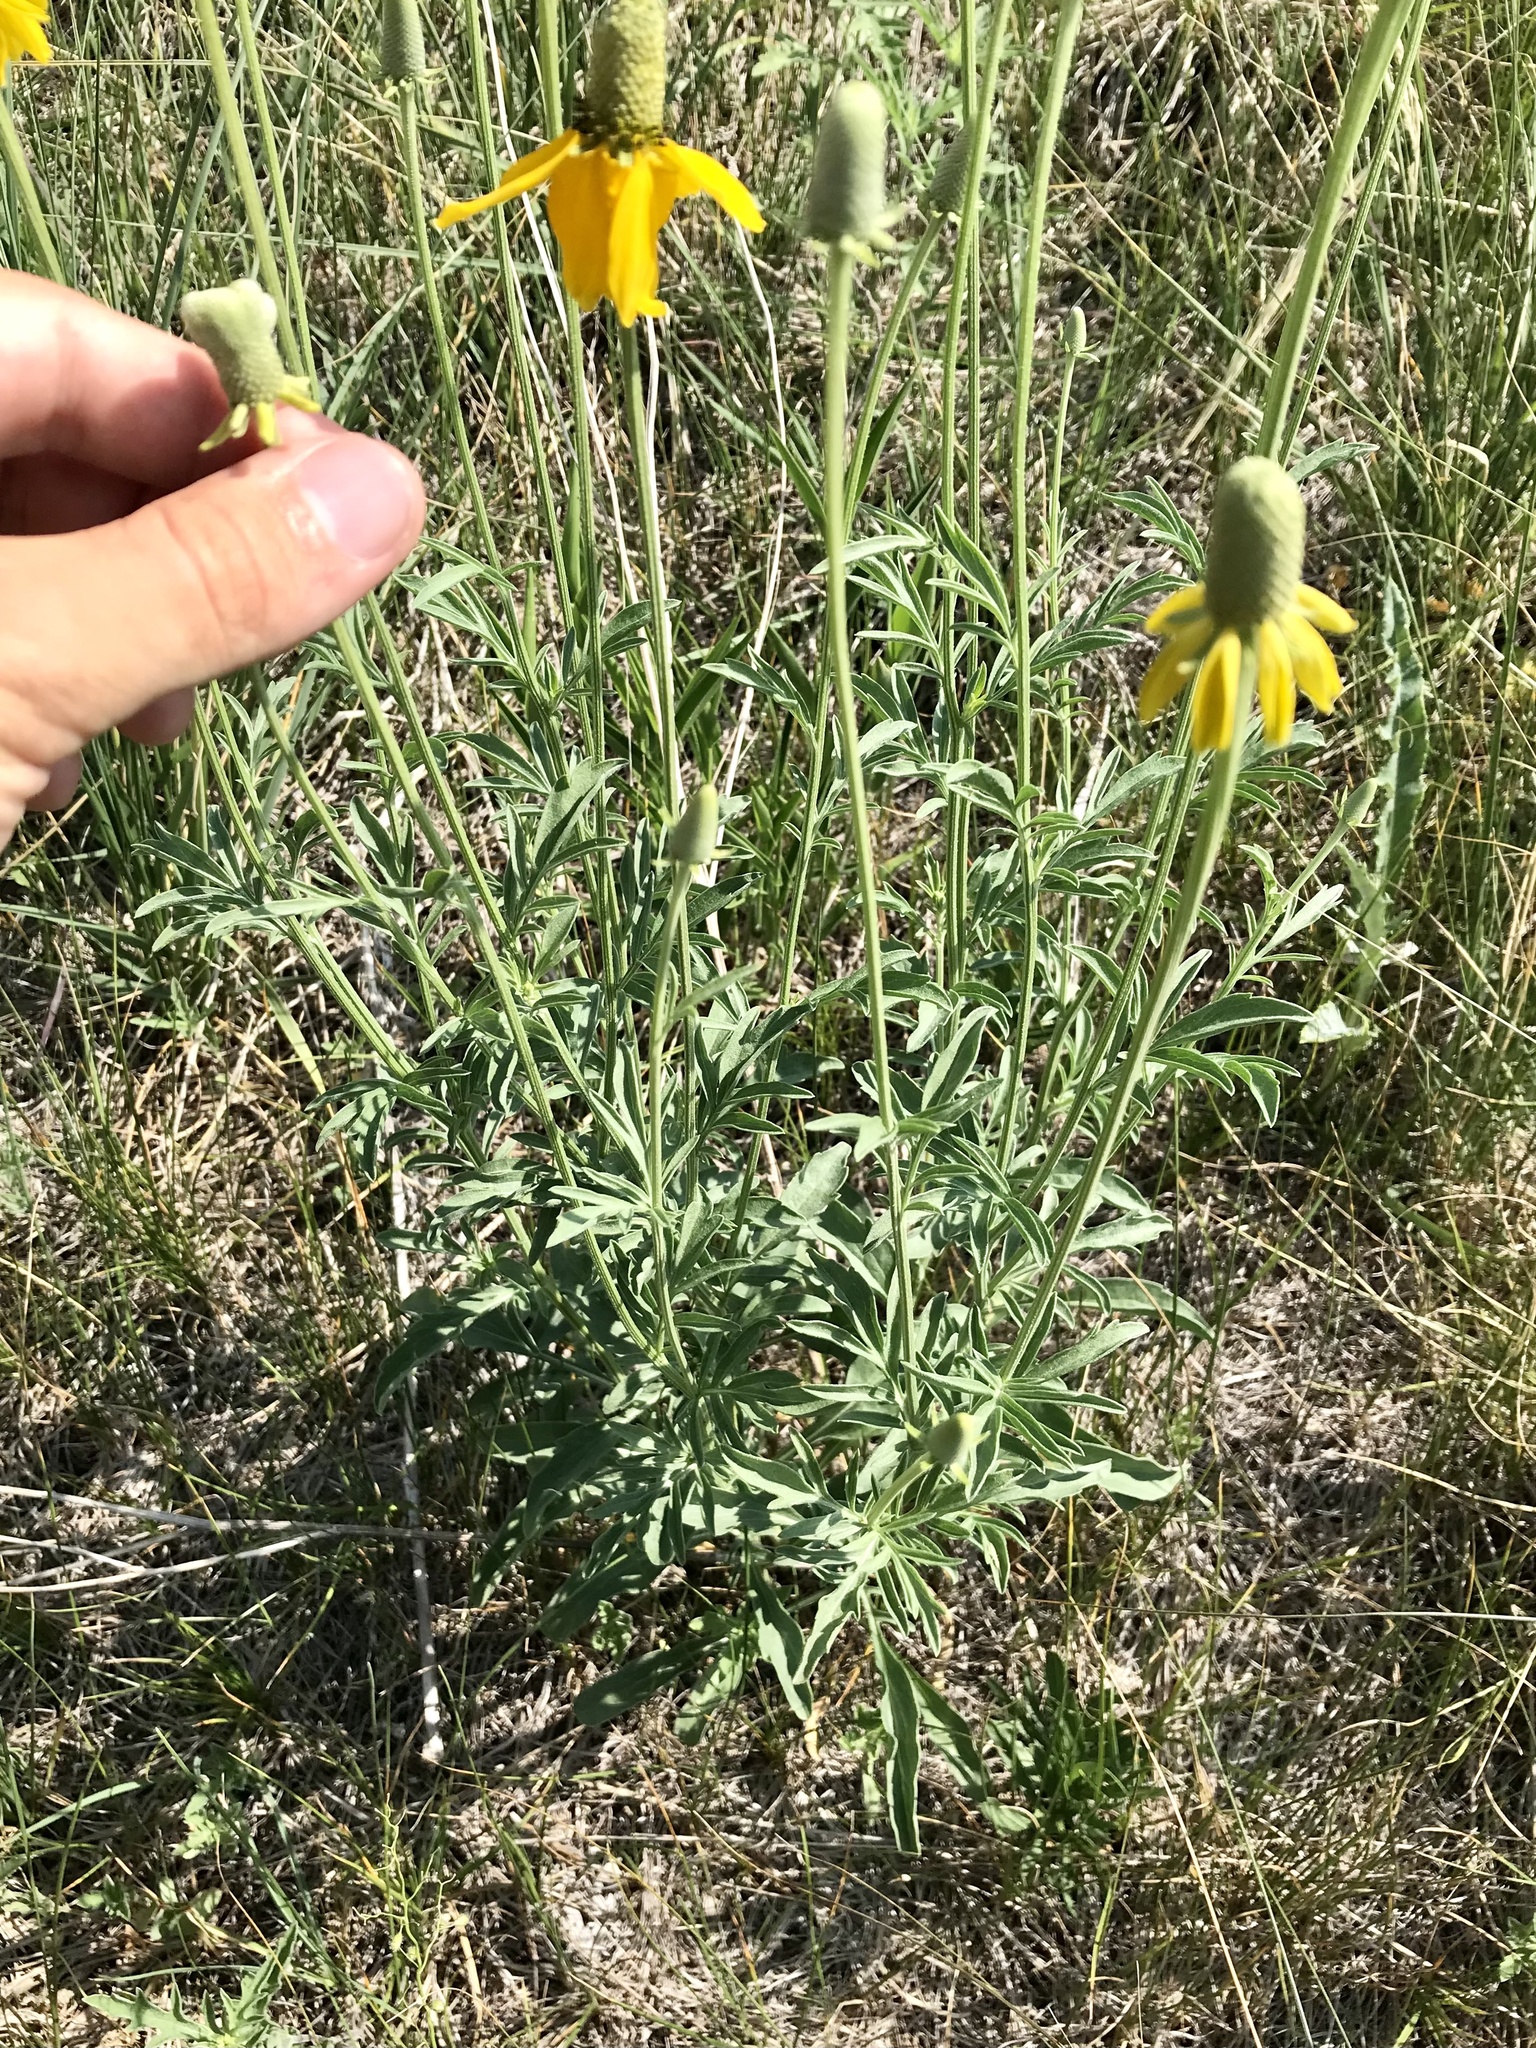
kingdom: Plantae
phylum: Tracheophyta
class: Magnoliopsida
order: Asterales
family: Asteraceae
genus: Ratibida
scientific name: Ratibida columnifera
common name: Prairie coneflower
